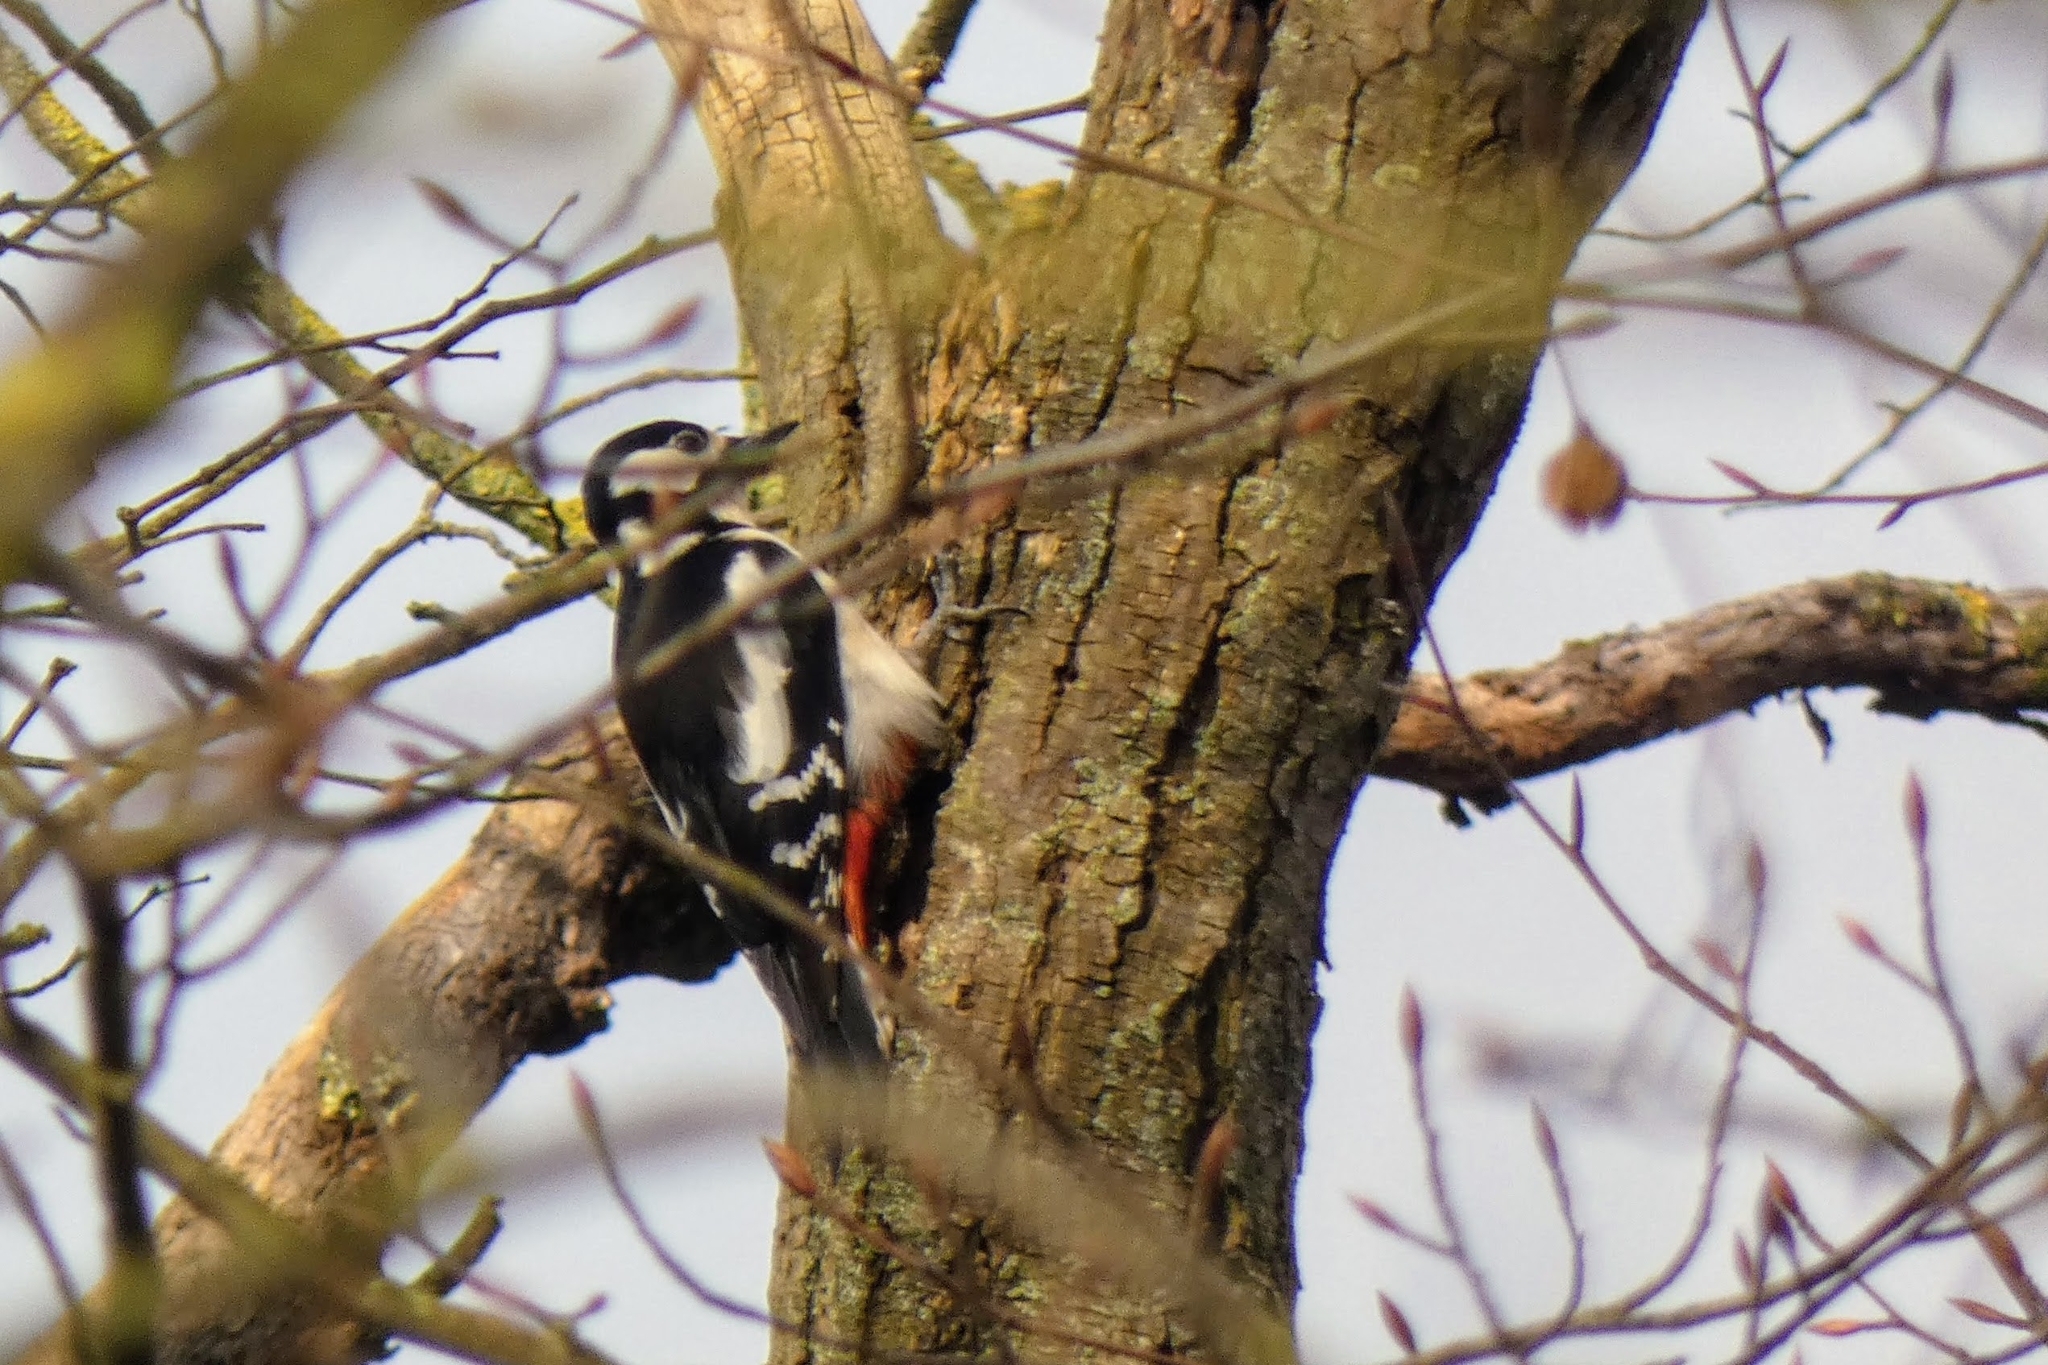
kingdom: Animalia
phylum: Chordata
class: Aves
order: Piciformes
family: Picidae
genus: Dendrocopos
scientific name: Dendrocopos major
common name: Great spotted woodpecker
